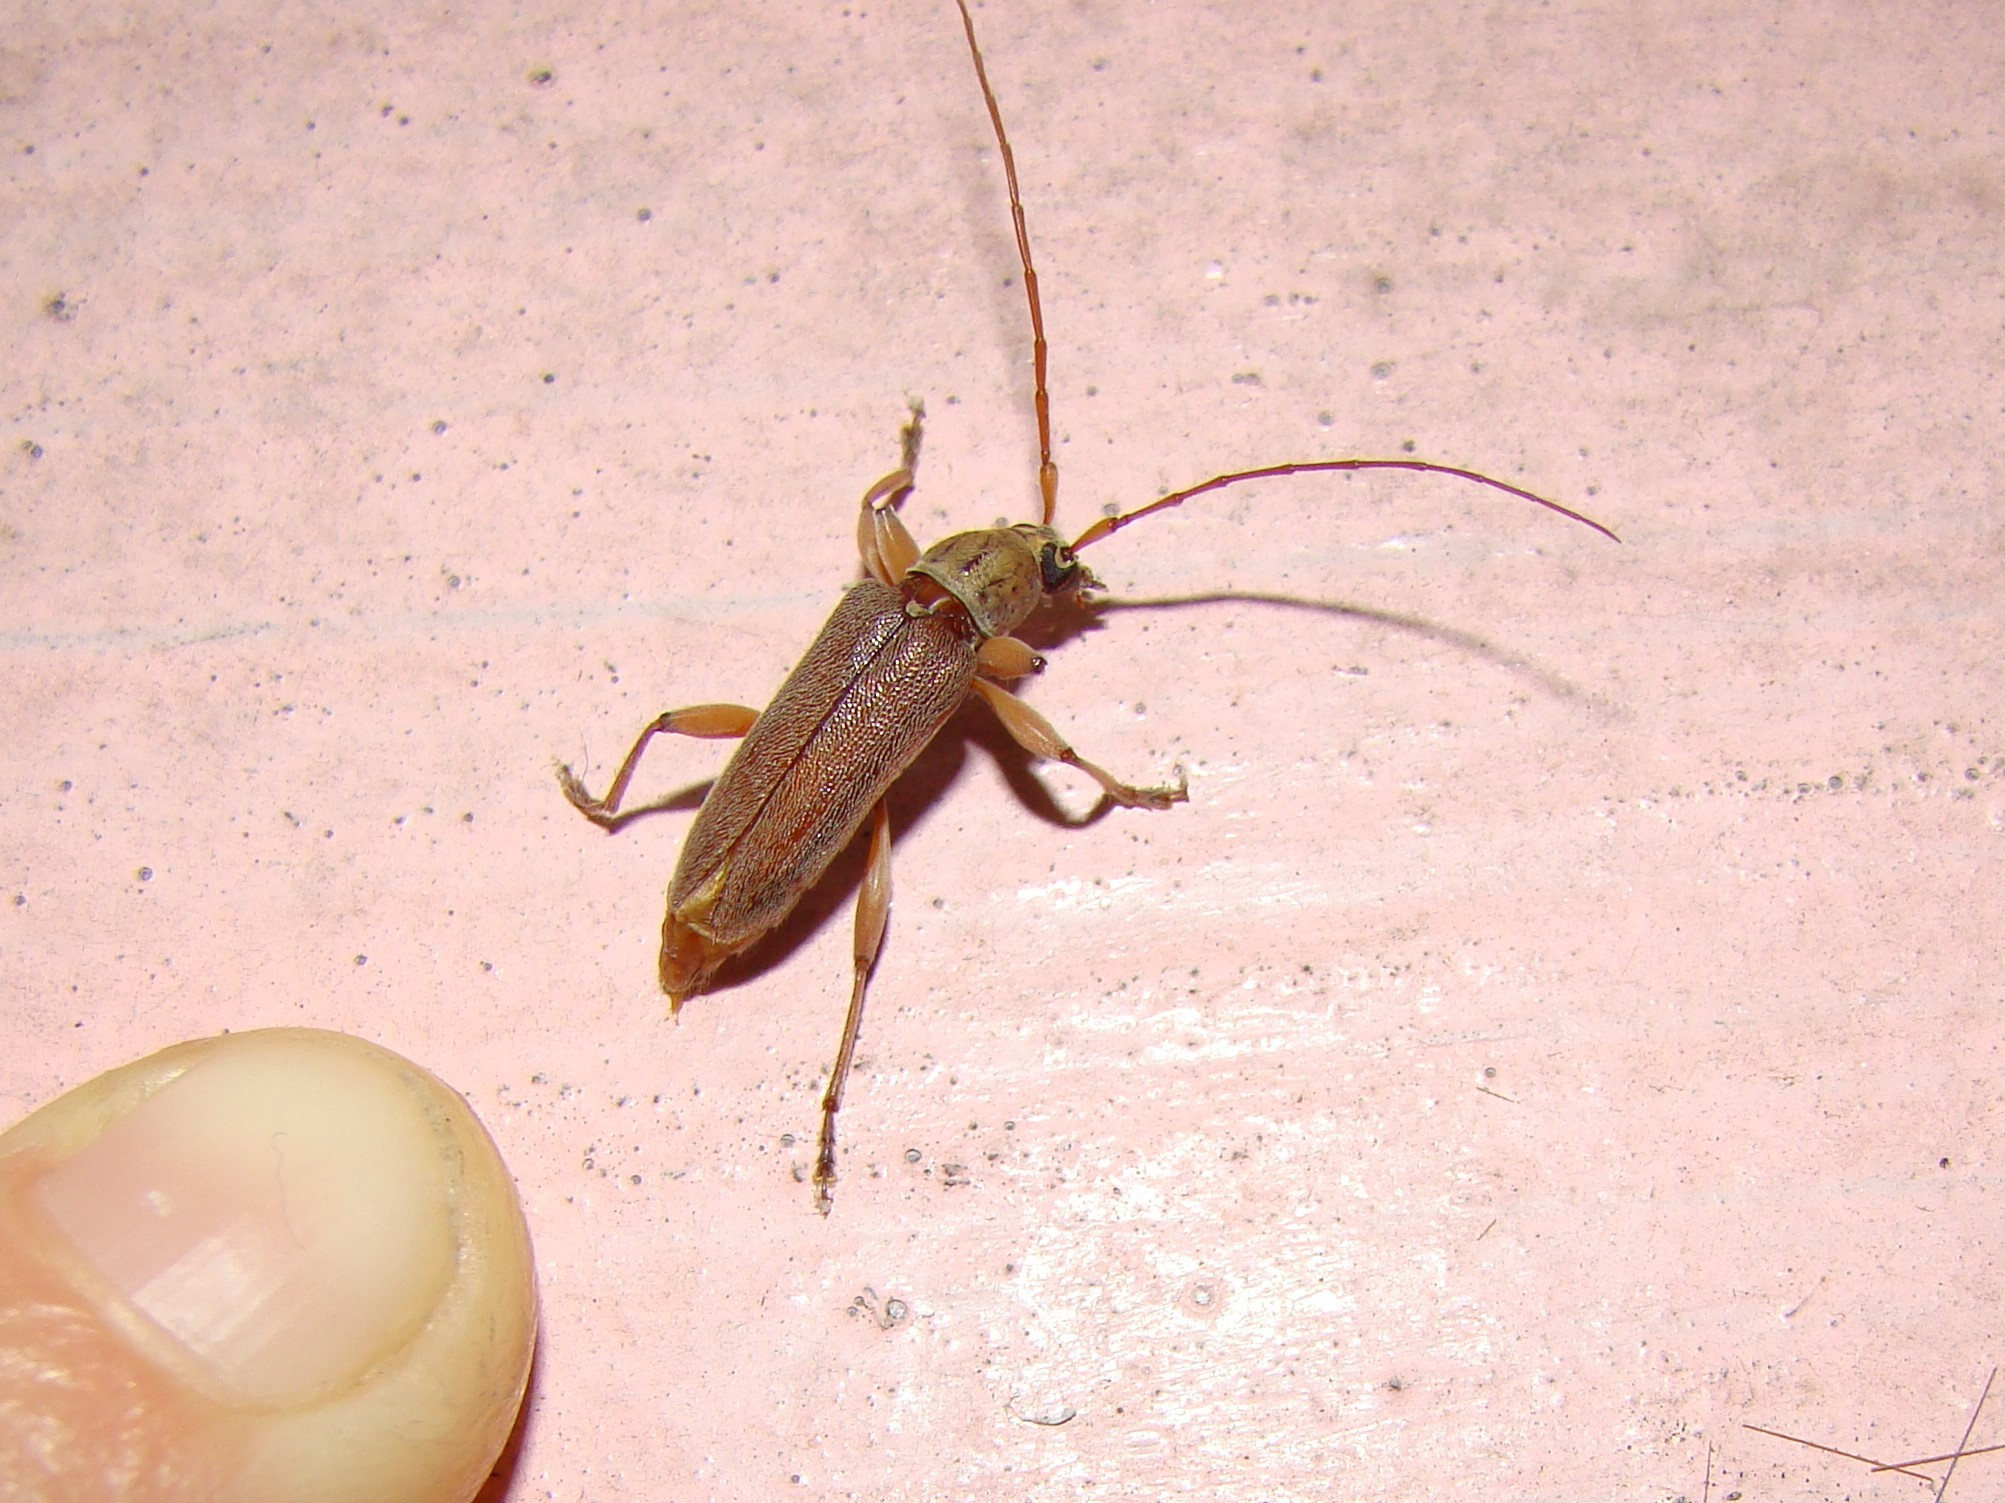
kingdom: Animalia
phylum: Arthropoda
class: Insecta
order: Coleoptera
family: Cerambycidae
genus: Ceresium
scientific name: Ceresium unicolor
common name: Citrus longhorn
